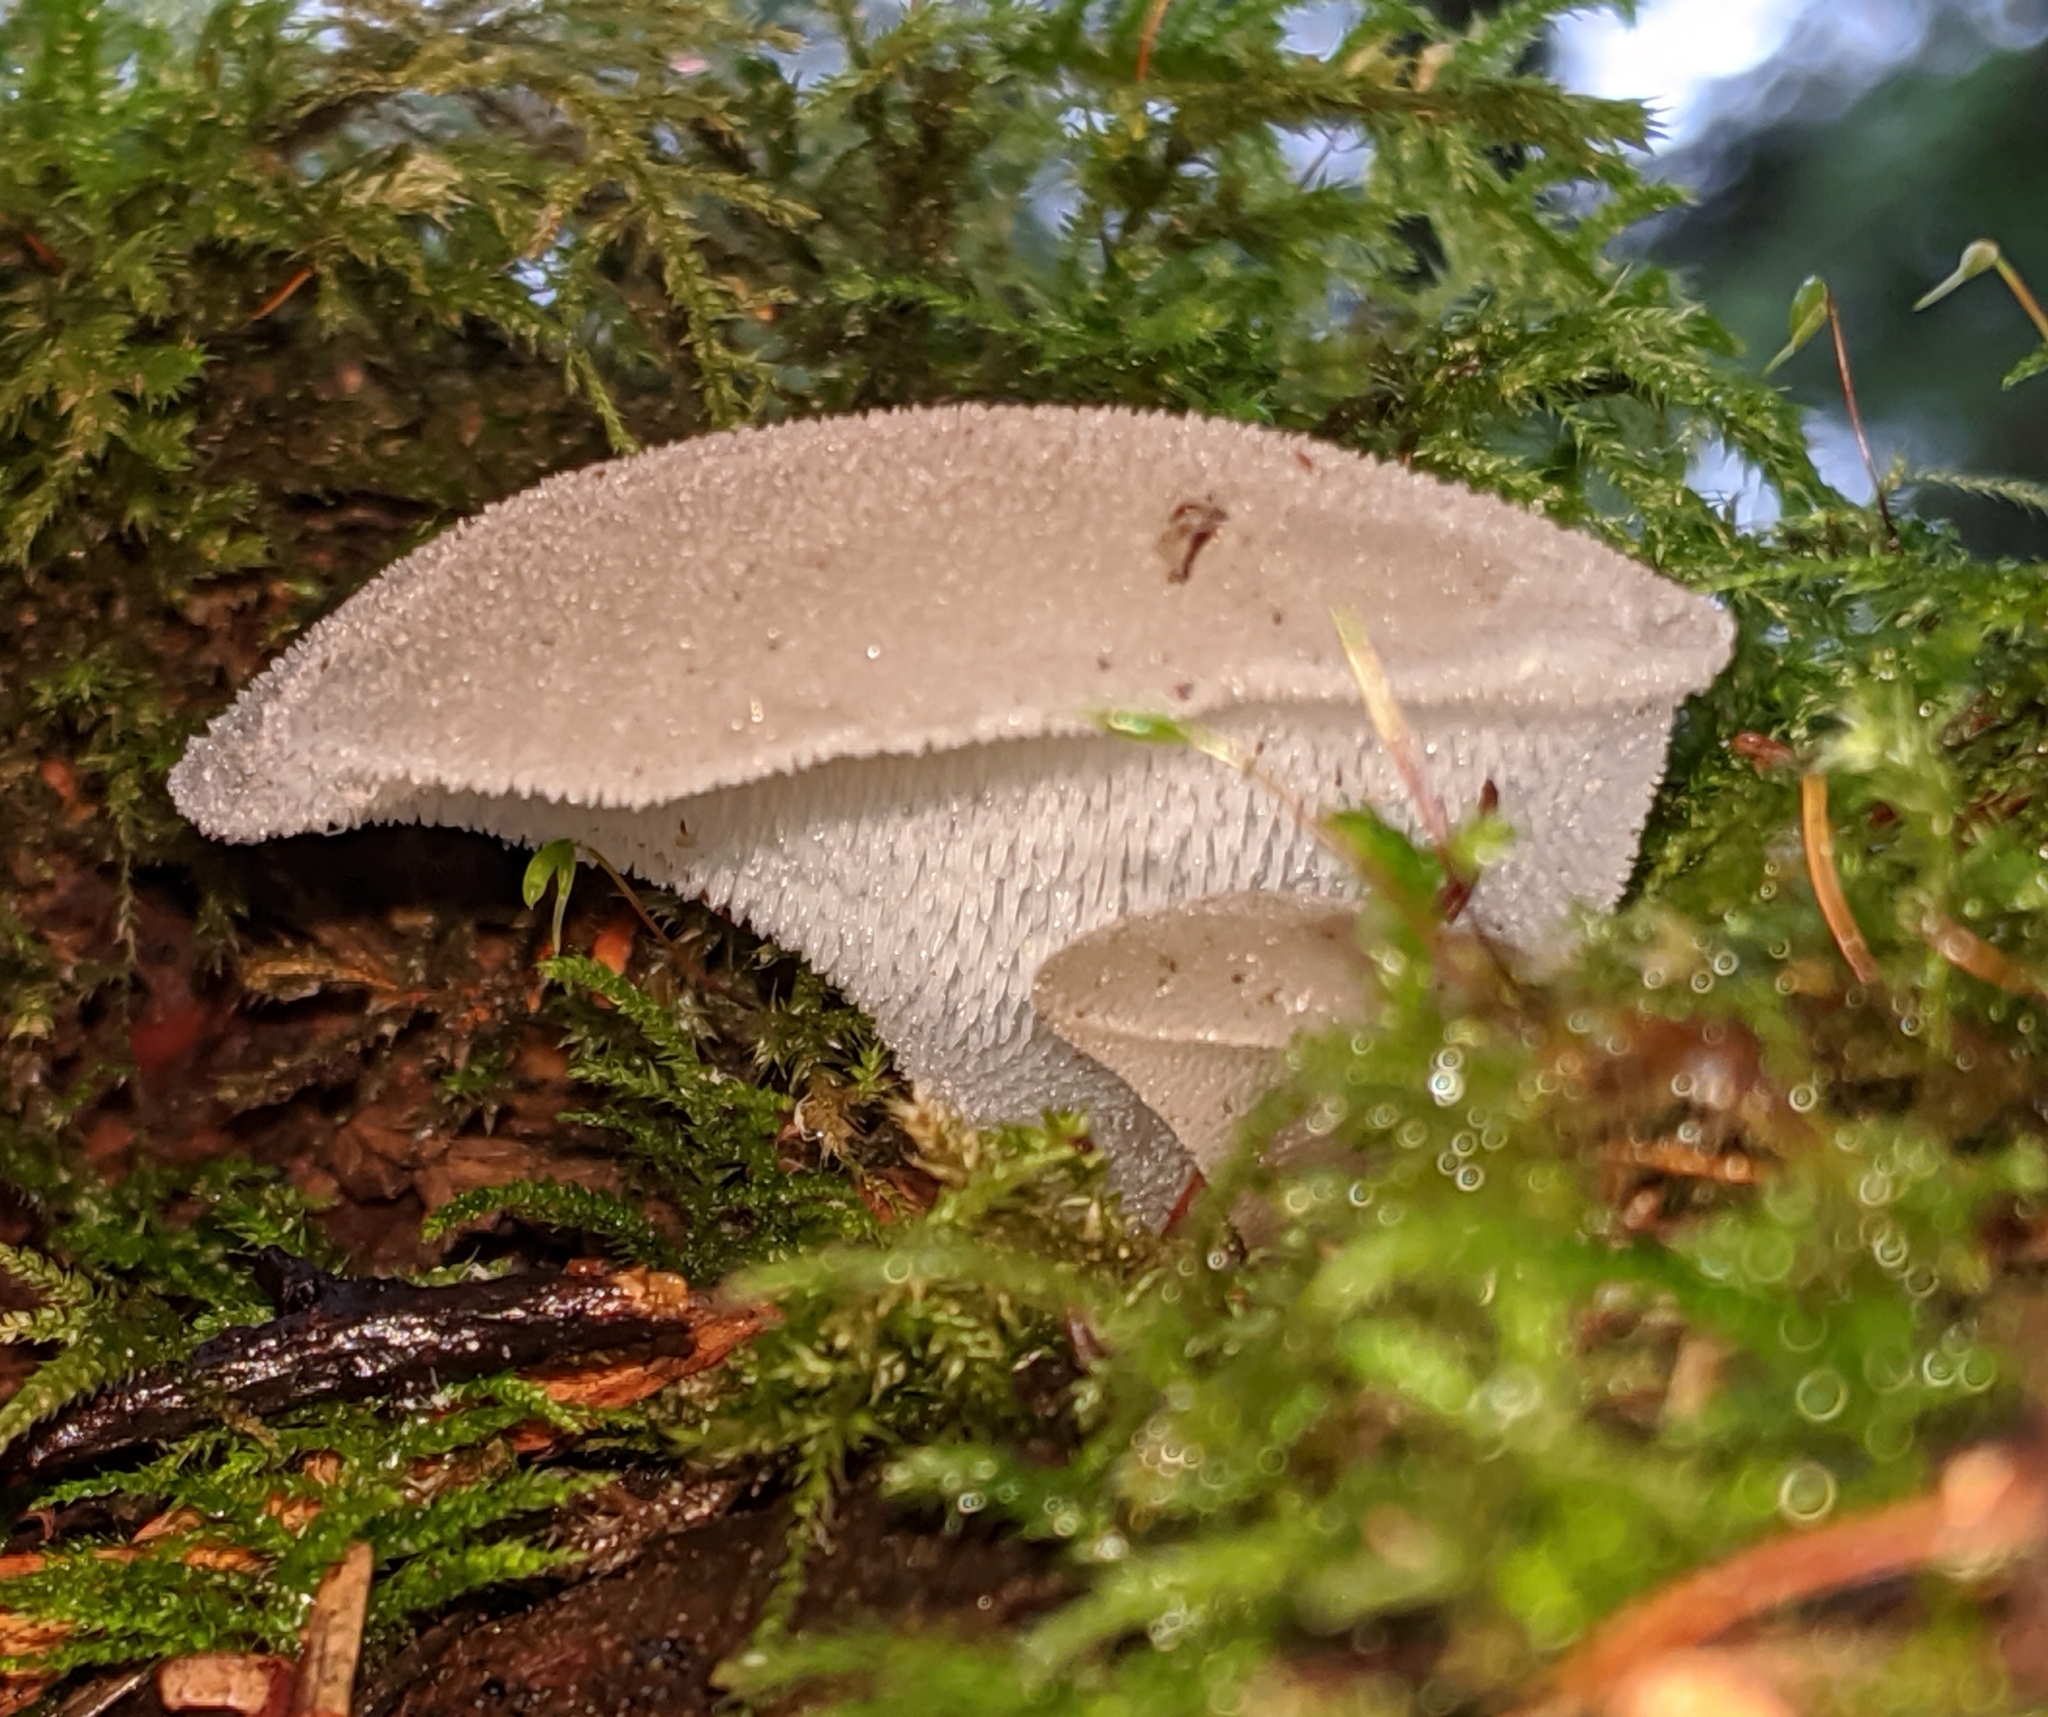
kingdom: Fungi
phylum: Basidiomycota
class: Agaricomycetes
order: Auriculariales
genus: Pseudohydnum
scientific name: Pseudohydnum gelatinosum
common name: Jelly tongue
